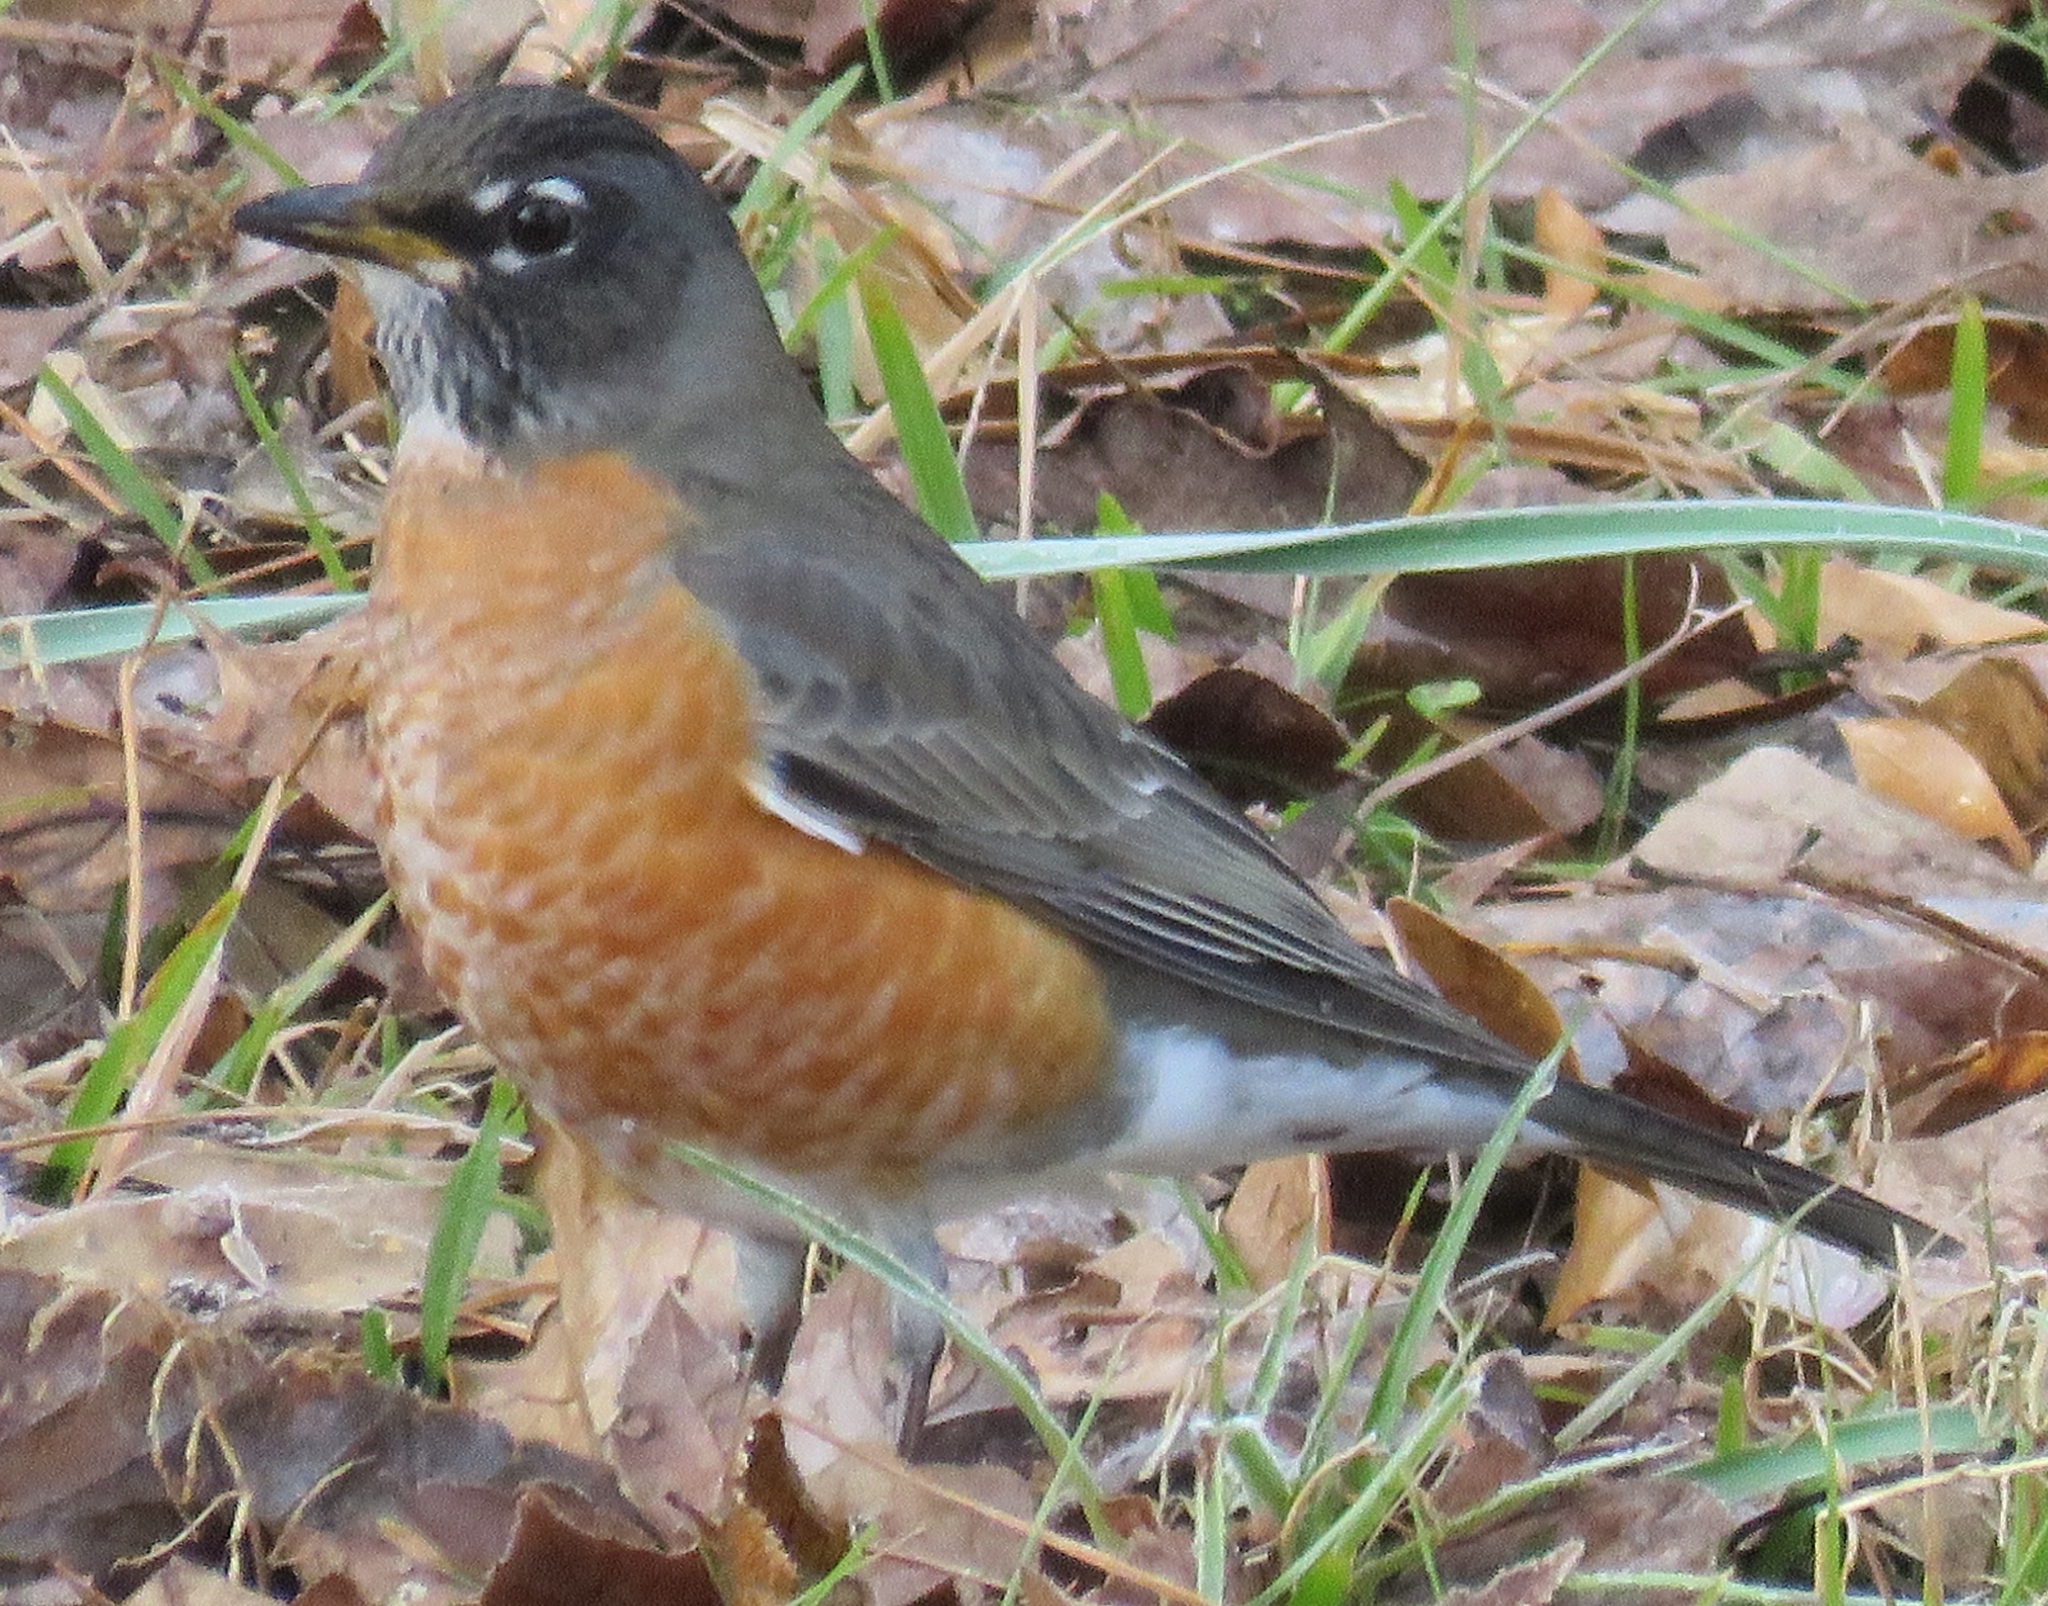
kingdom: Animalia
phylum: Chordata
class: Aves
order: Passeriformes
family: Turdidae
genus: Turdus
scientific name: Turdus migratorius
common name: American robin
